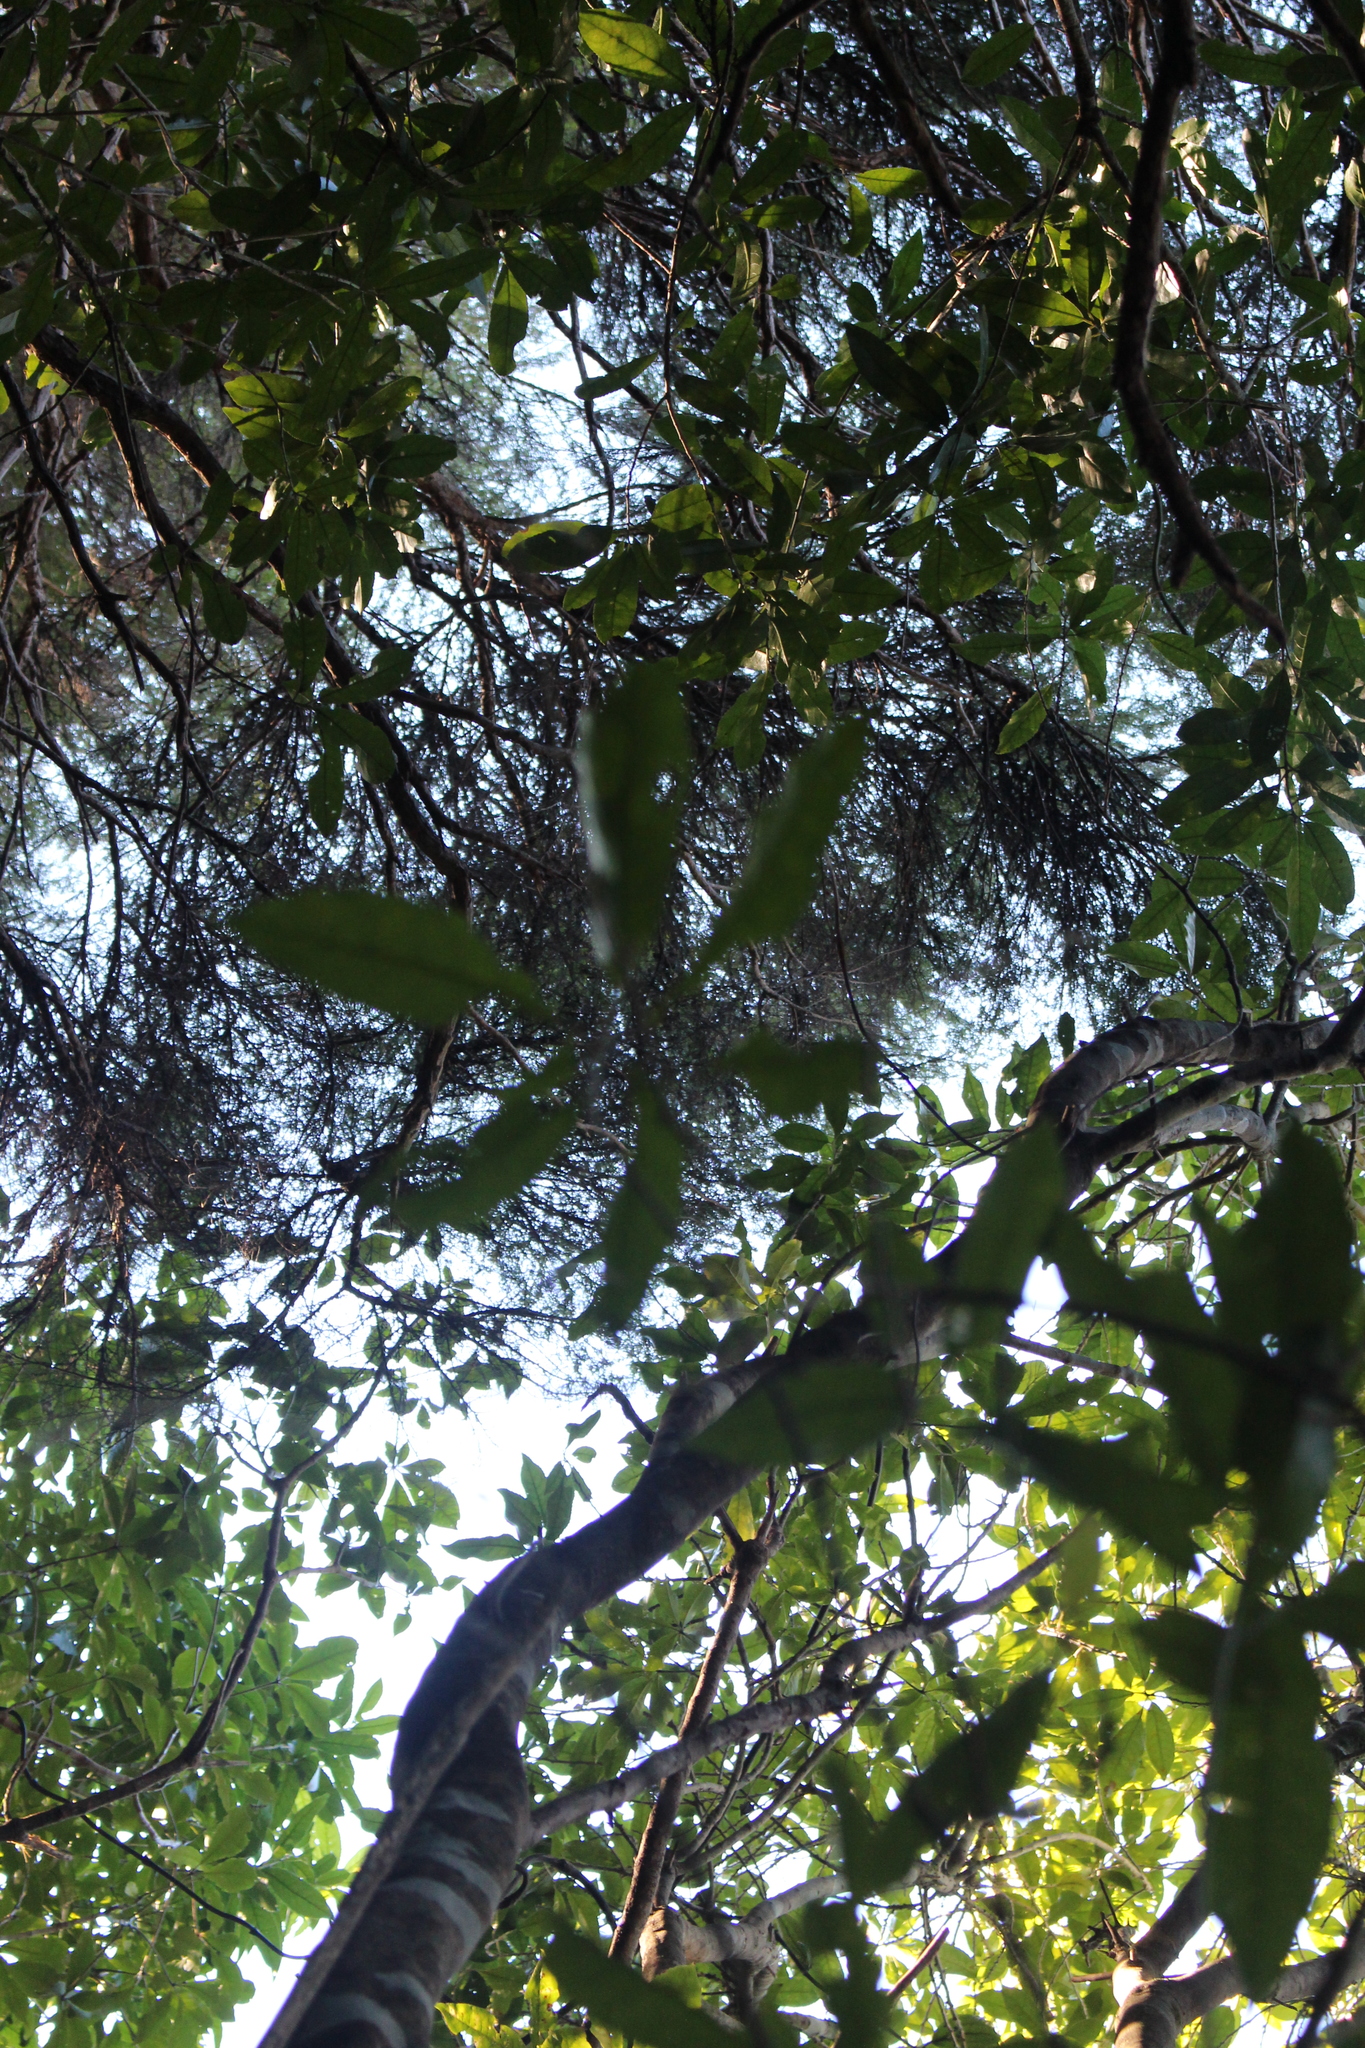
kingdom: Plantae
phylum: Tracheophyta
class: Magnoliopsida
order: Malpighiales
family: Violaceae
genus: Melicytus
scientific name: Melicytus ramiflorus
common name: Mahoe
